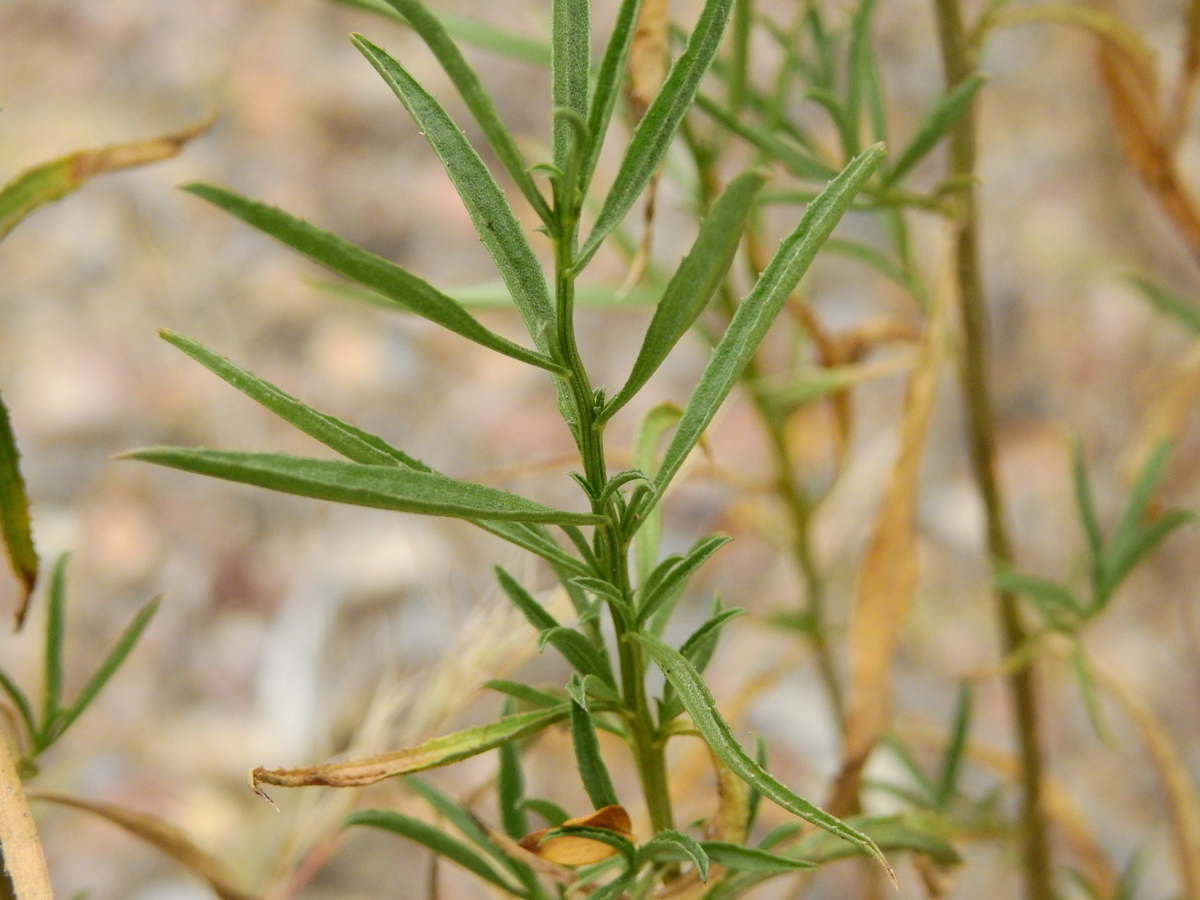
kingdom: Plantae
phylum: Tracheophyta
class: Magnoliopsida
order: Asterales
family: Asteraceae
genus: Baccharis
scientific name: Baccharis glutinosa
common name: Saltmarsh baccharis
